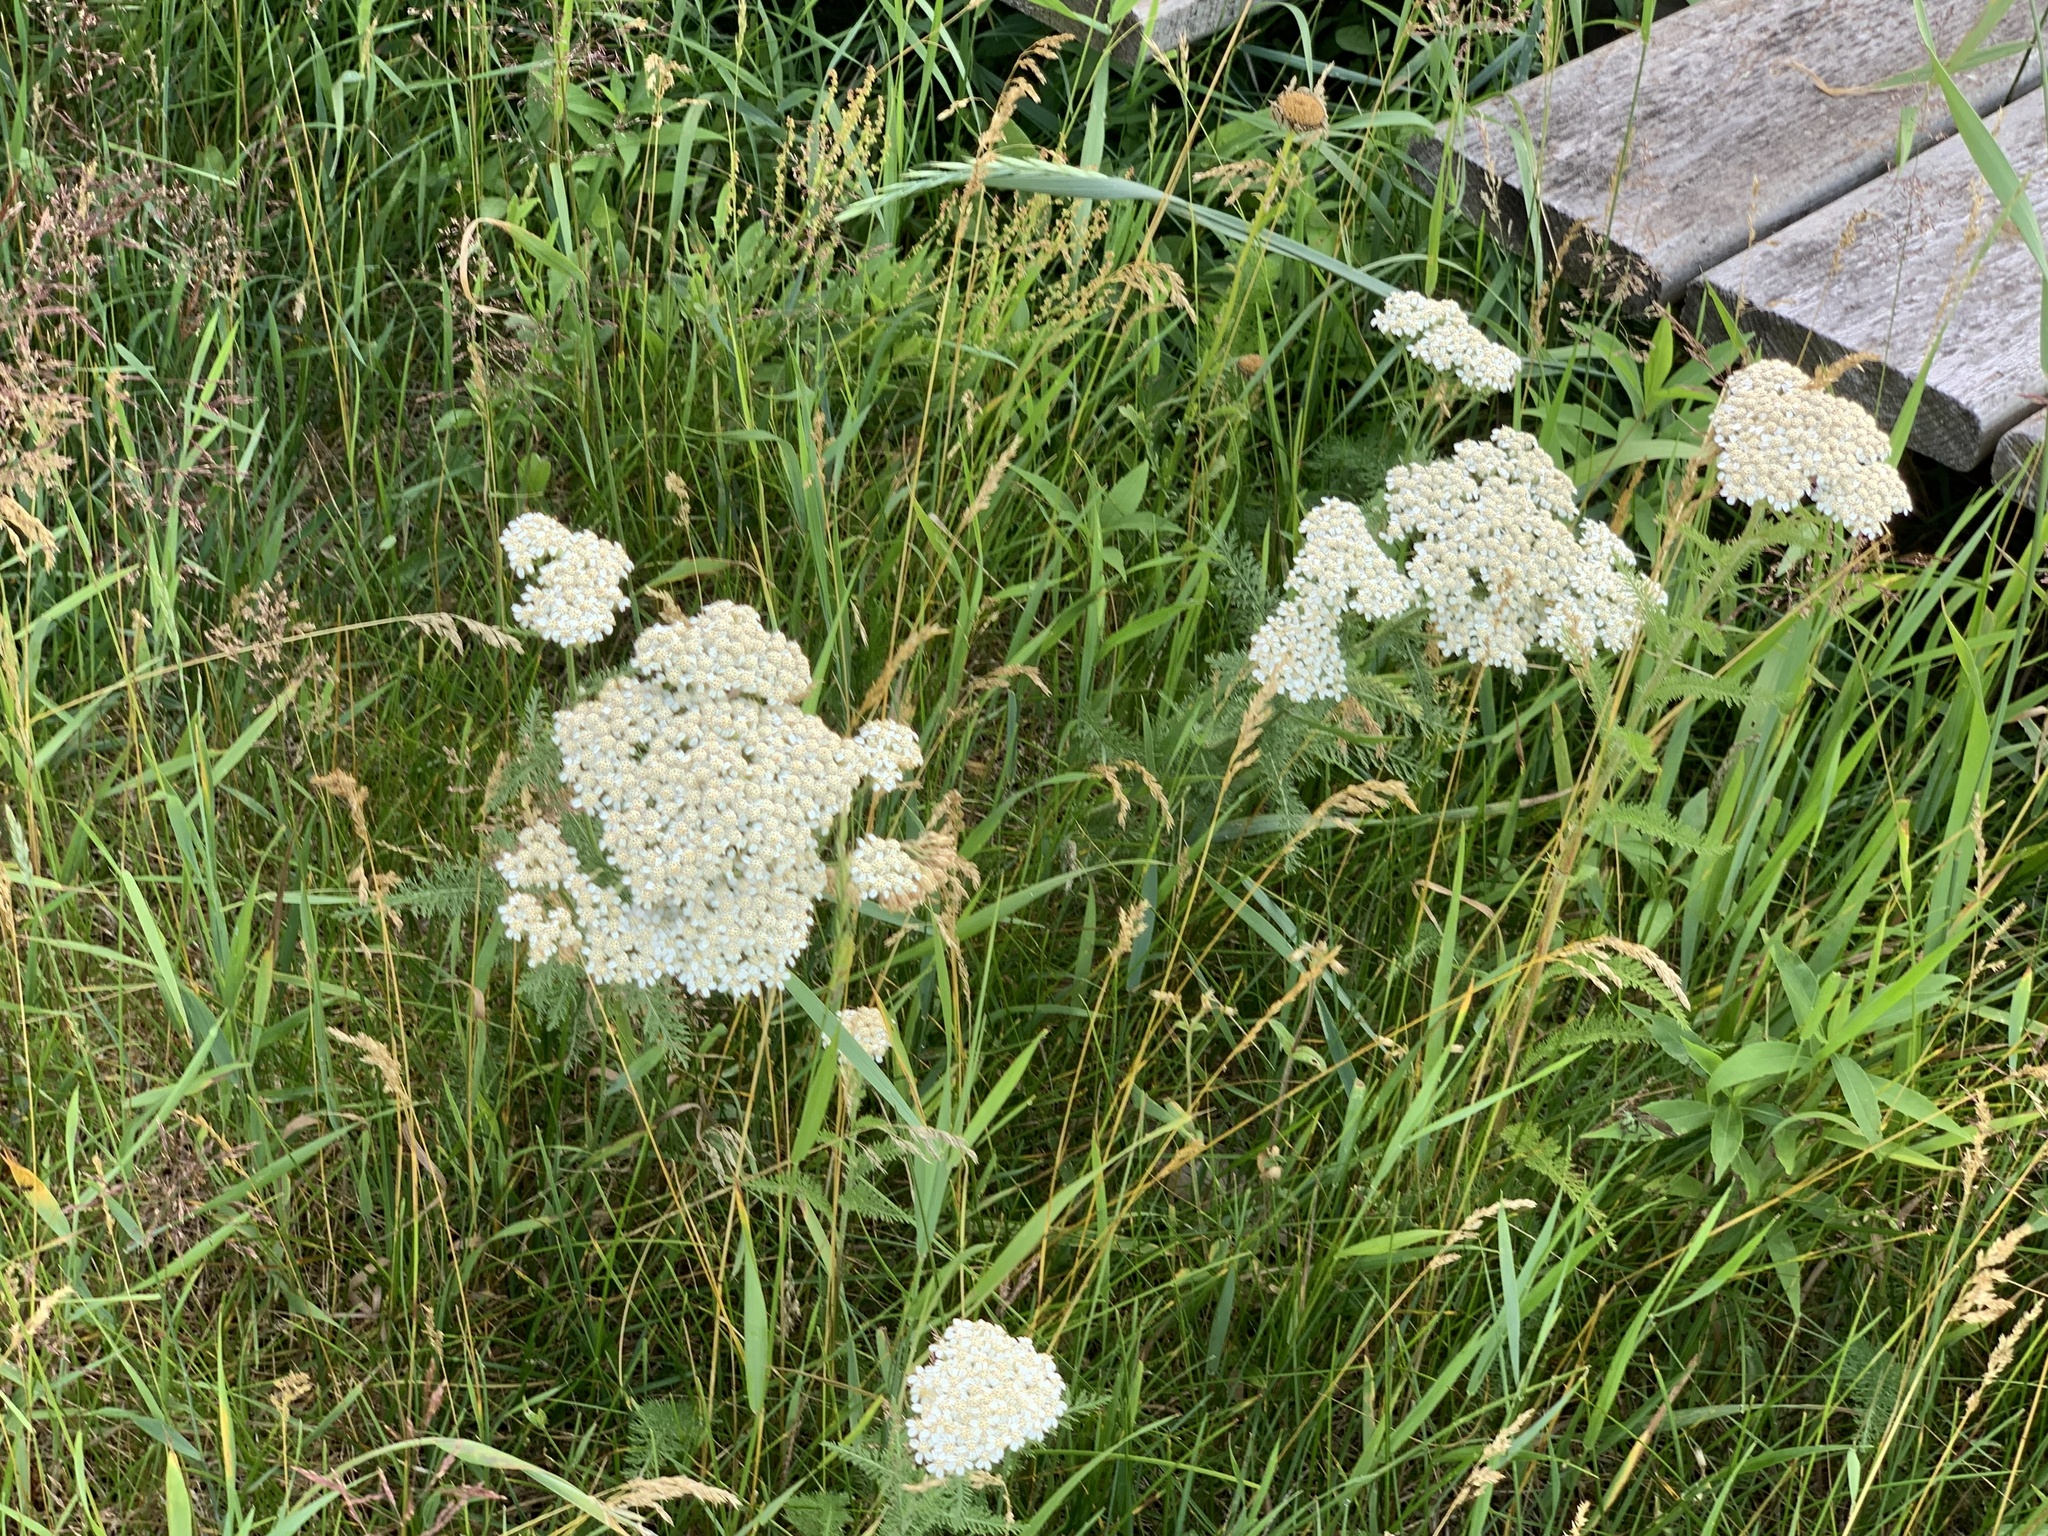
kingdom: Plantae
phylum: Tracheophyta
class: Magnoliopsida
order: Asterales
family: Asteraceae
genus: Achillea
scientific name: Achillea millefolium
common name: Yarrow
